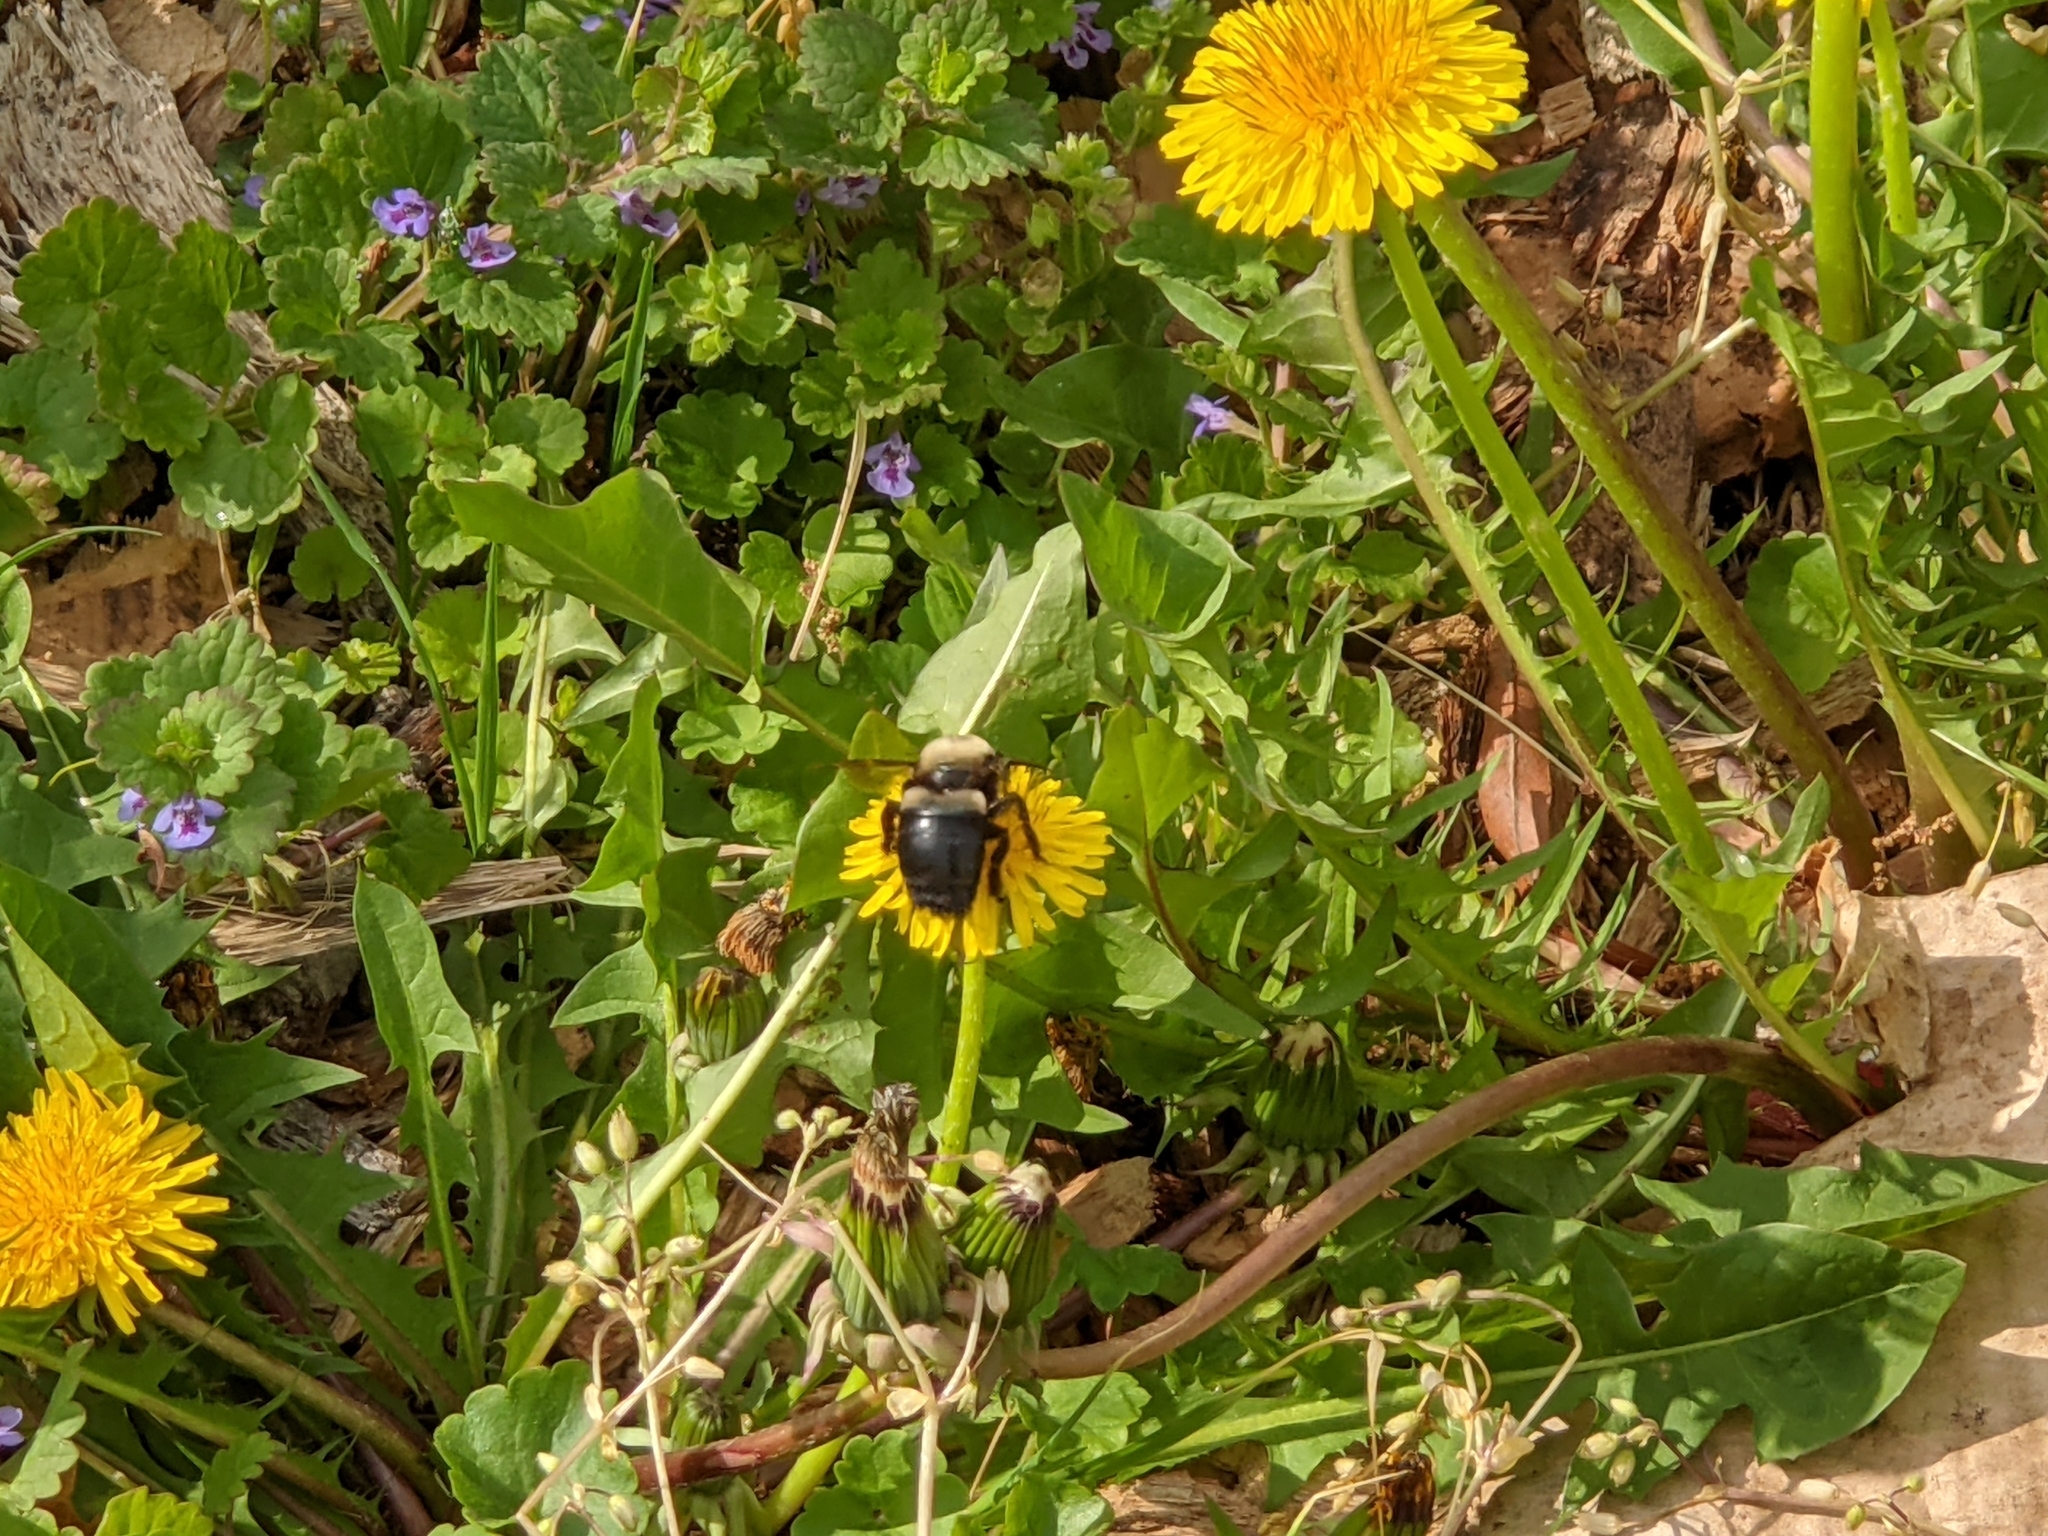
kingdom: Animalia
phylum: Arthropoda
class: Insecta
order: Hymenoptera
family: Apidae
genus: Xylocopa
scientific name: Xylocopa virginica
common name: Carpenter bee
